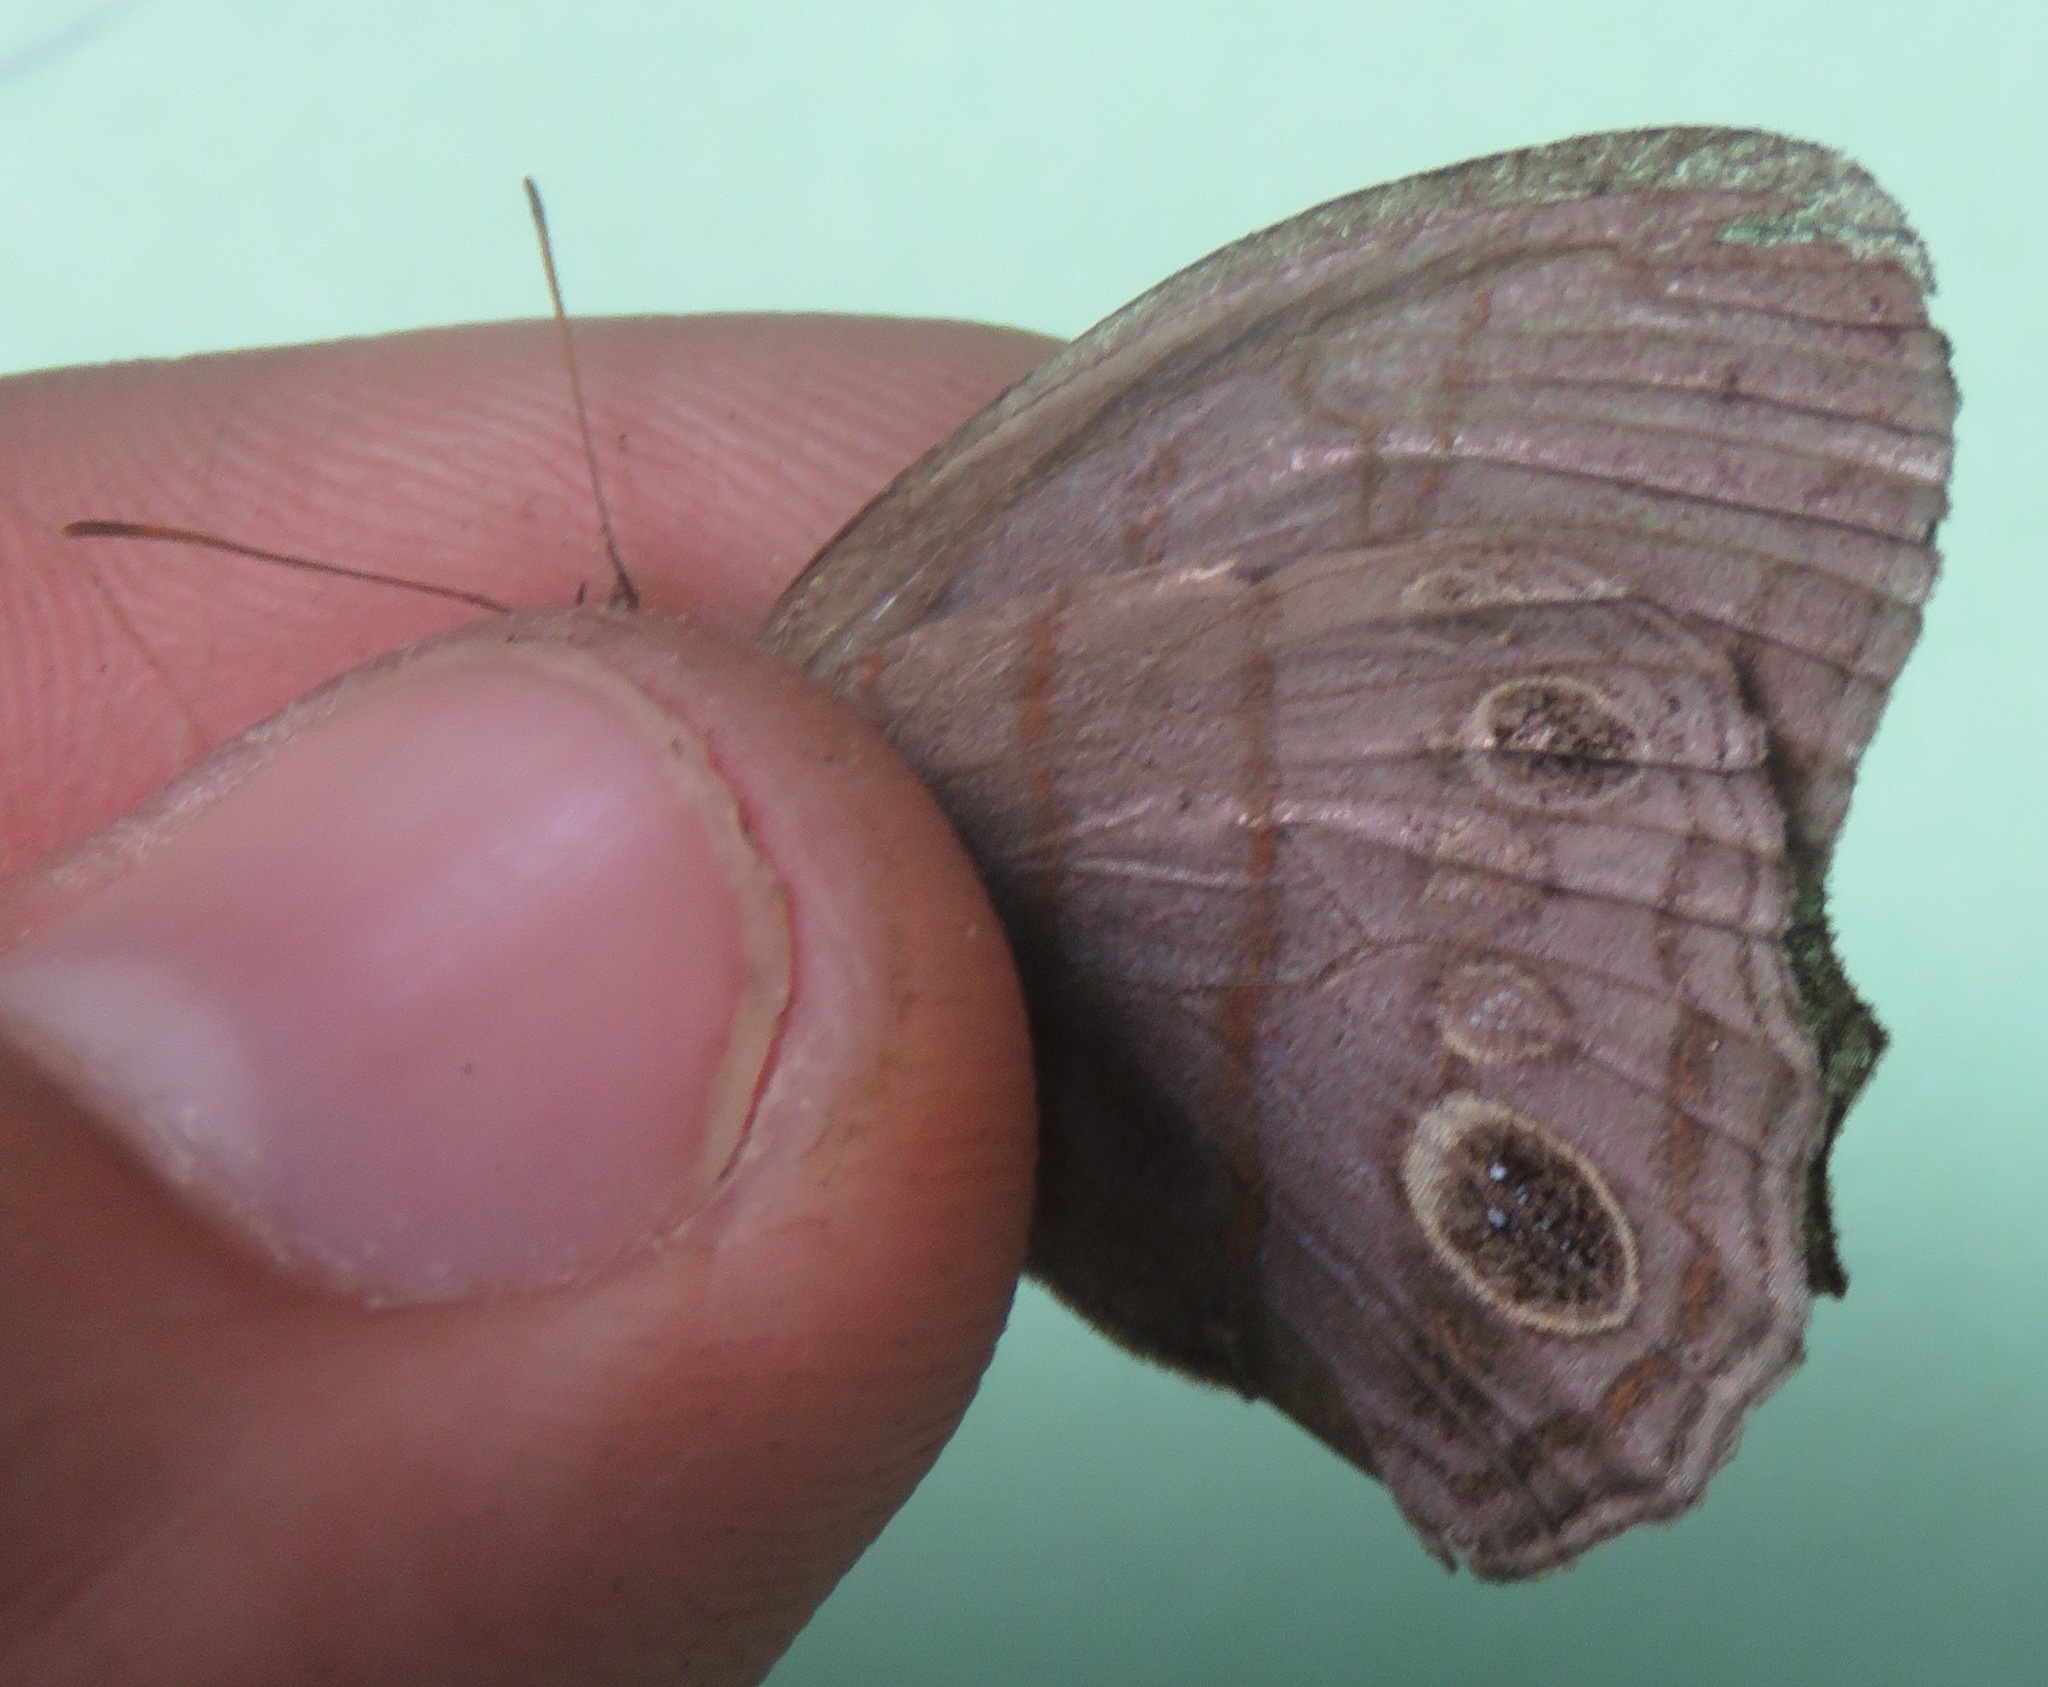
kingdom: Animalia
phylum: Arthropoda
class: Insecta
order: Lepidoptera
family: Nymphalidae
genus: Magneuptychia
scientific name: Magneuptychia libye
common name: Blue-gray satyr
